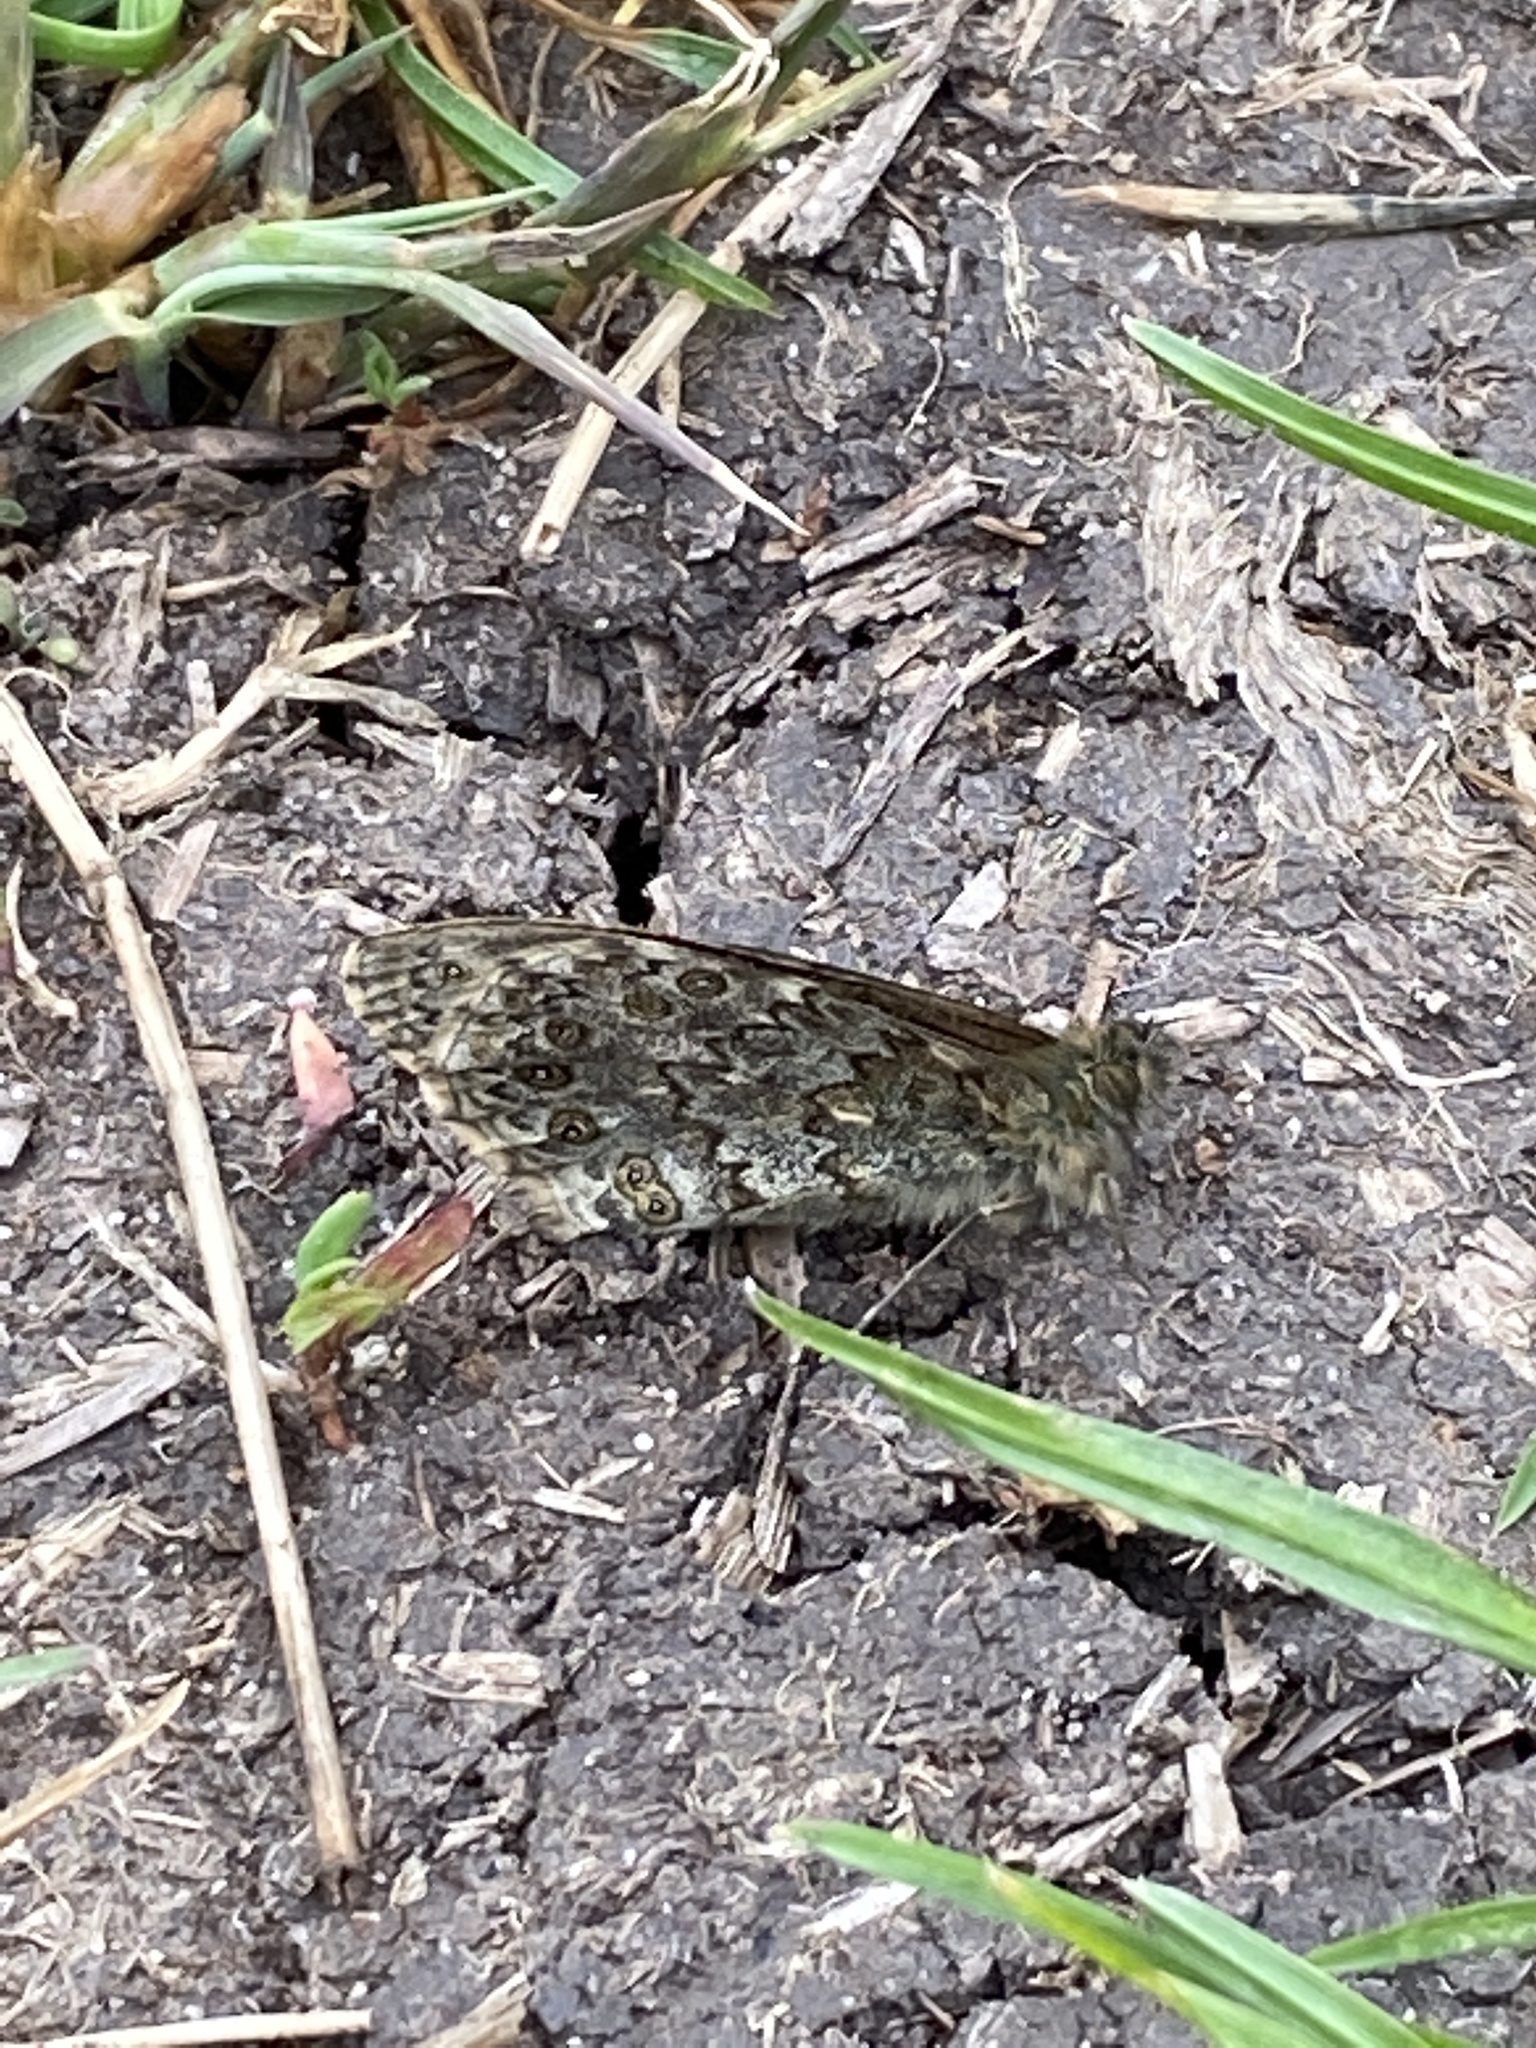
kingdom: Animalia
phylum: Arthropoda
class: Insecta
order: Lepidoptera
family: Nymphalidae
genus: Pararge
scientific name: Pararge Lasiommata megera
